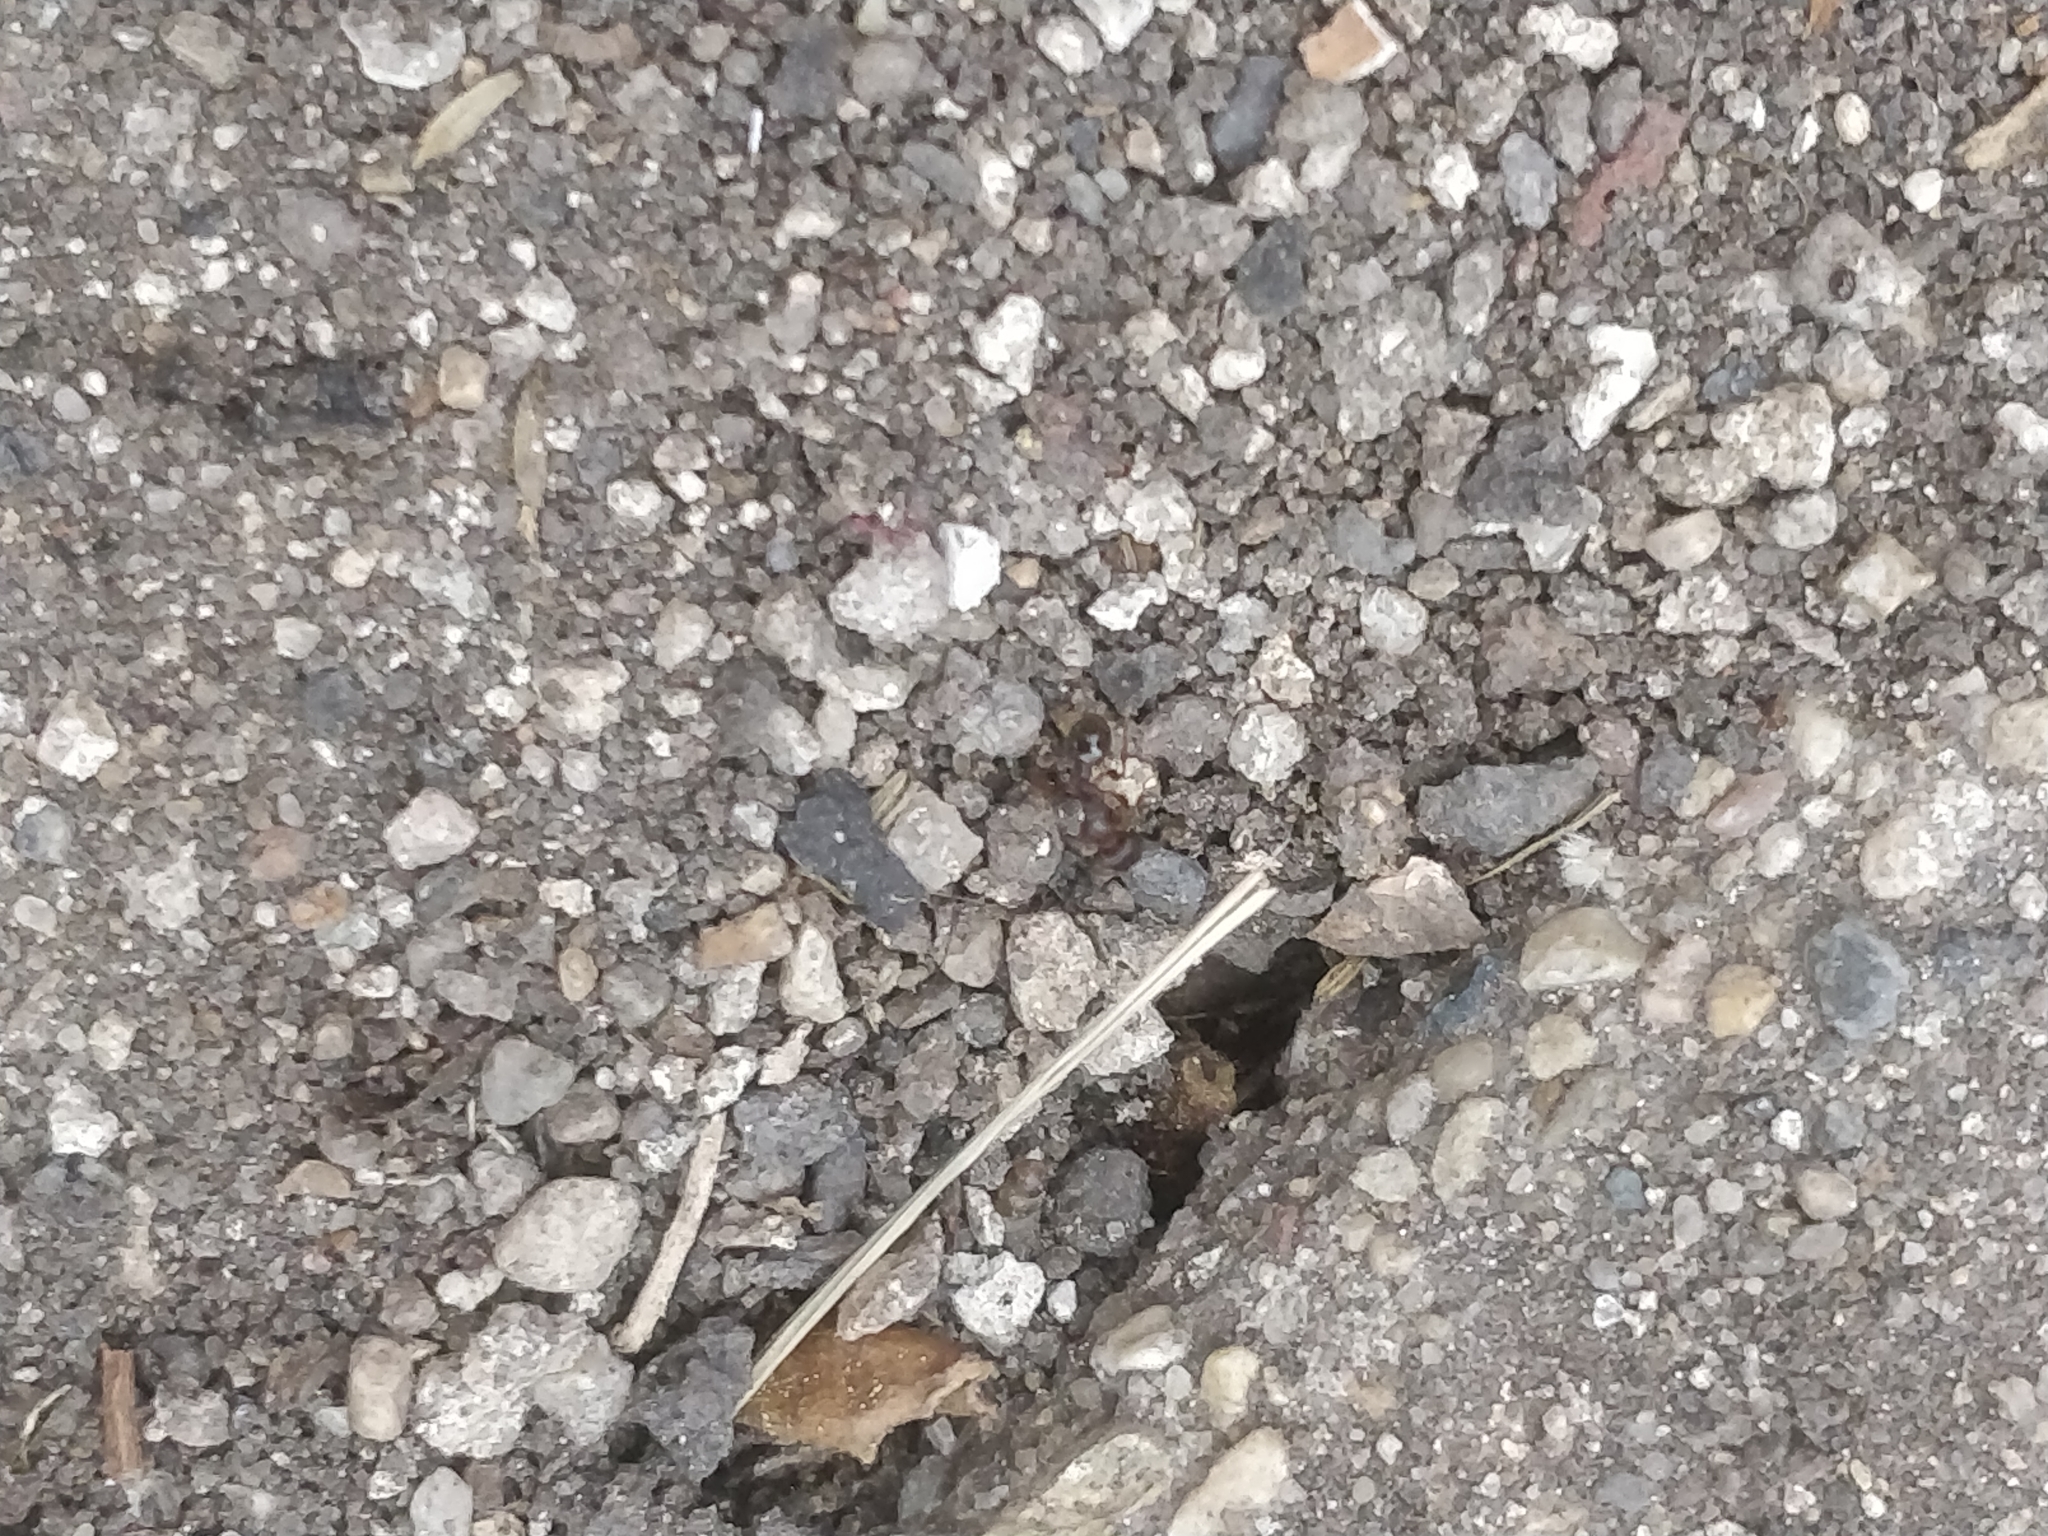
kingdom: Animalia
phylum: Arthropoda
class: Insecta
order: Hymenoptera
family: Formicidae
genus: Tetramorium
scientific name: Tetramorium immigrans
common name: Pavement ant
